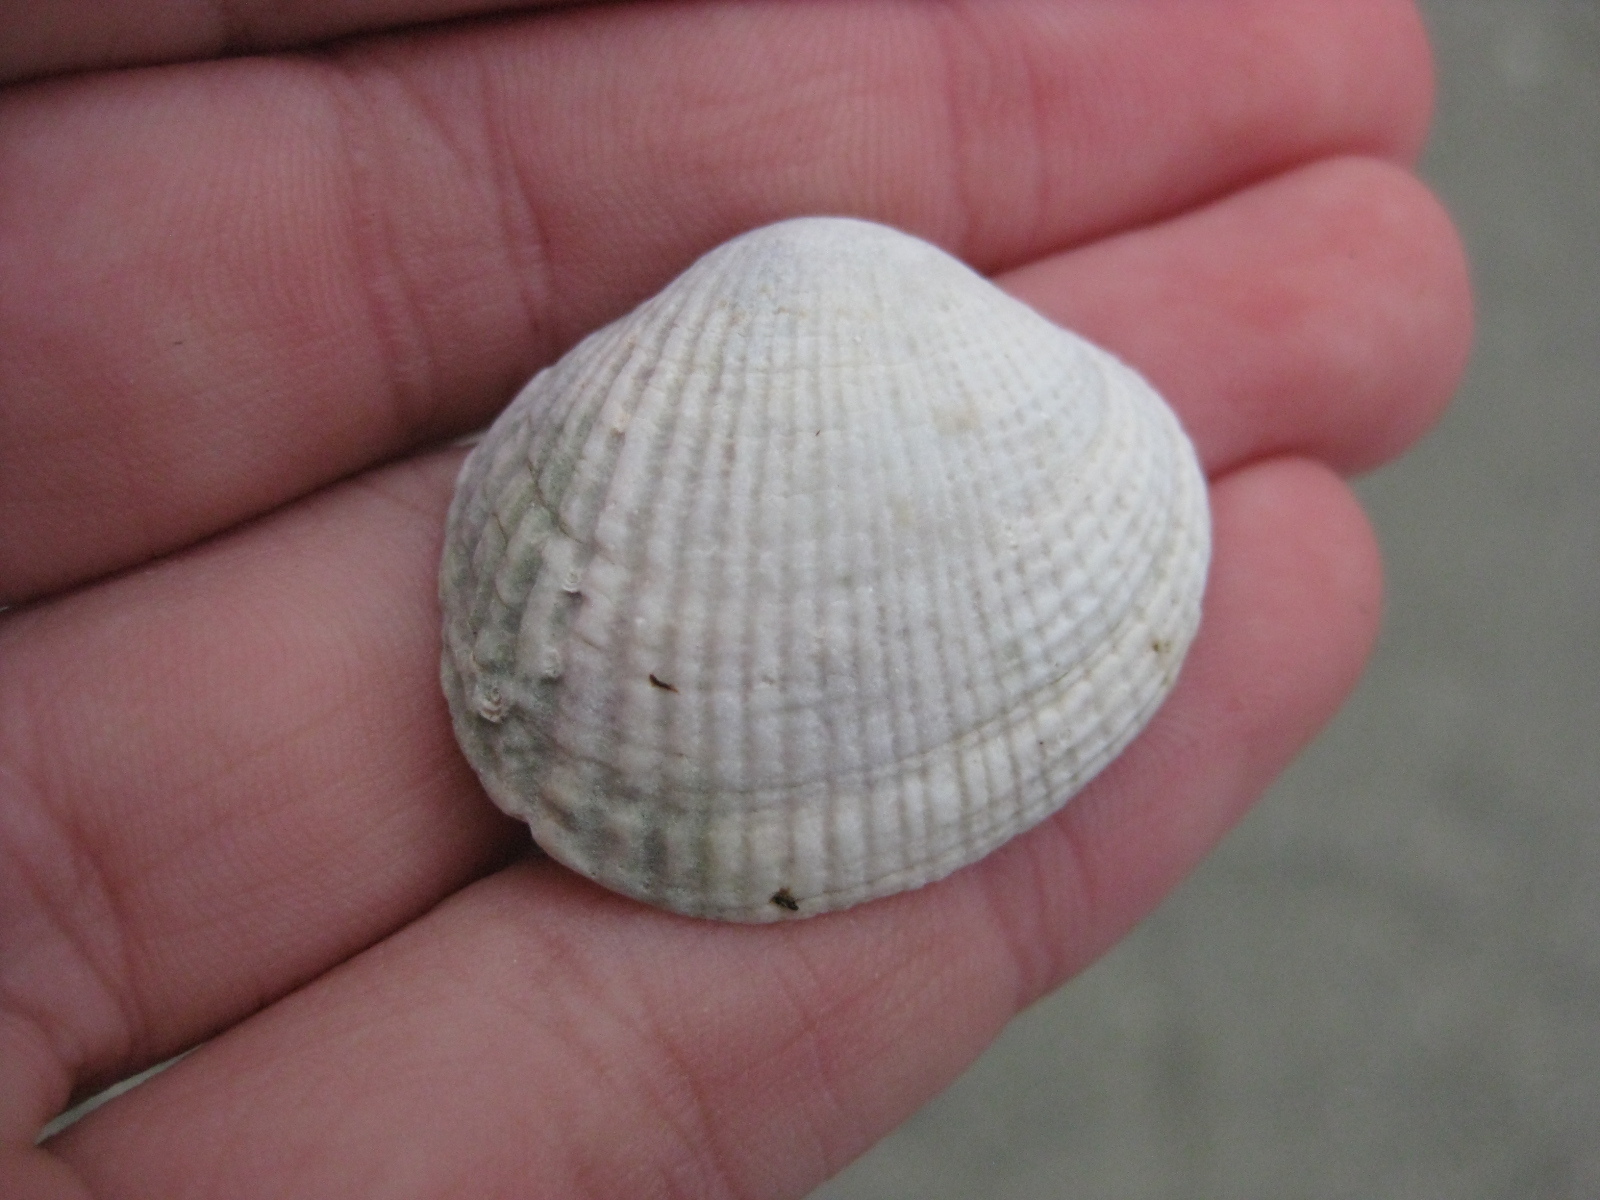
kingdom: Animalia
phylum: Mollusca
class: Bivalvia
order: Venerida
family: Veneridae
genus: Leukoma
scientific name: Leukoma crassicosta
